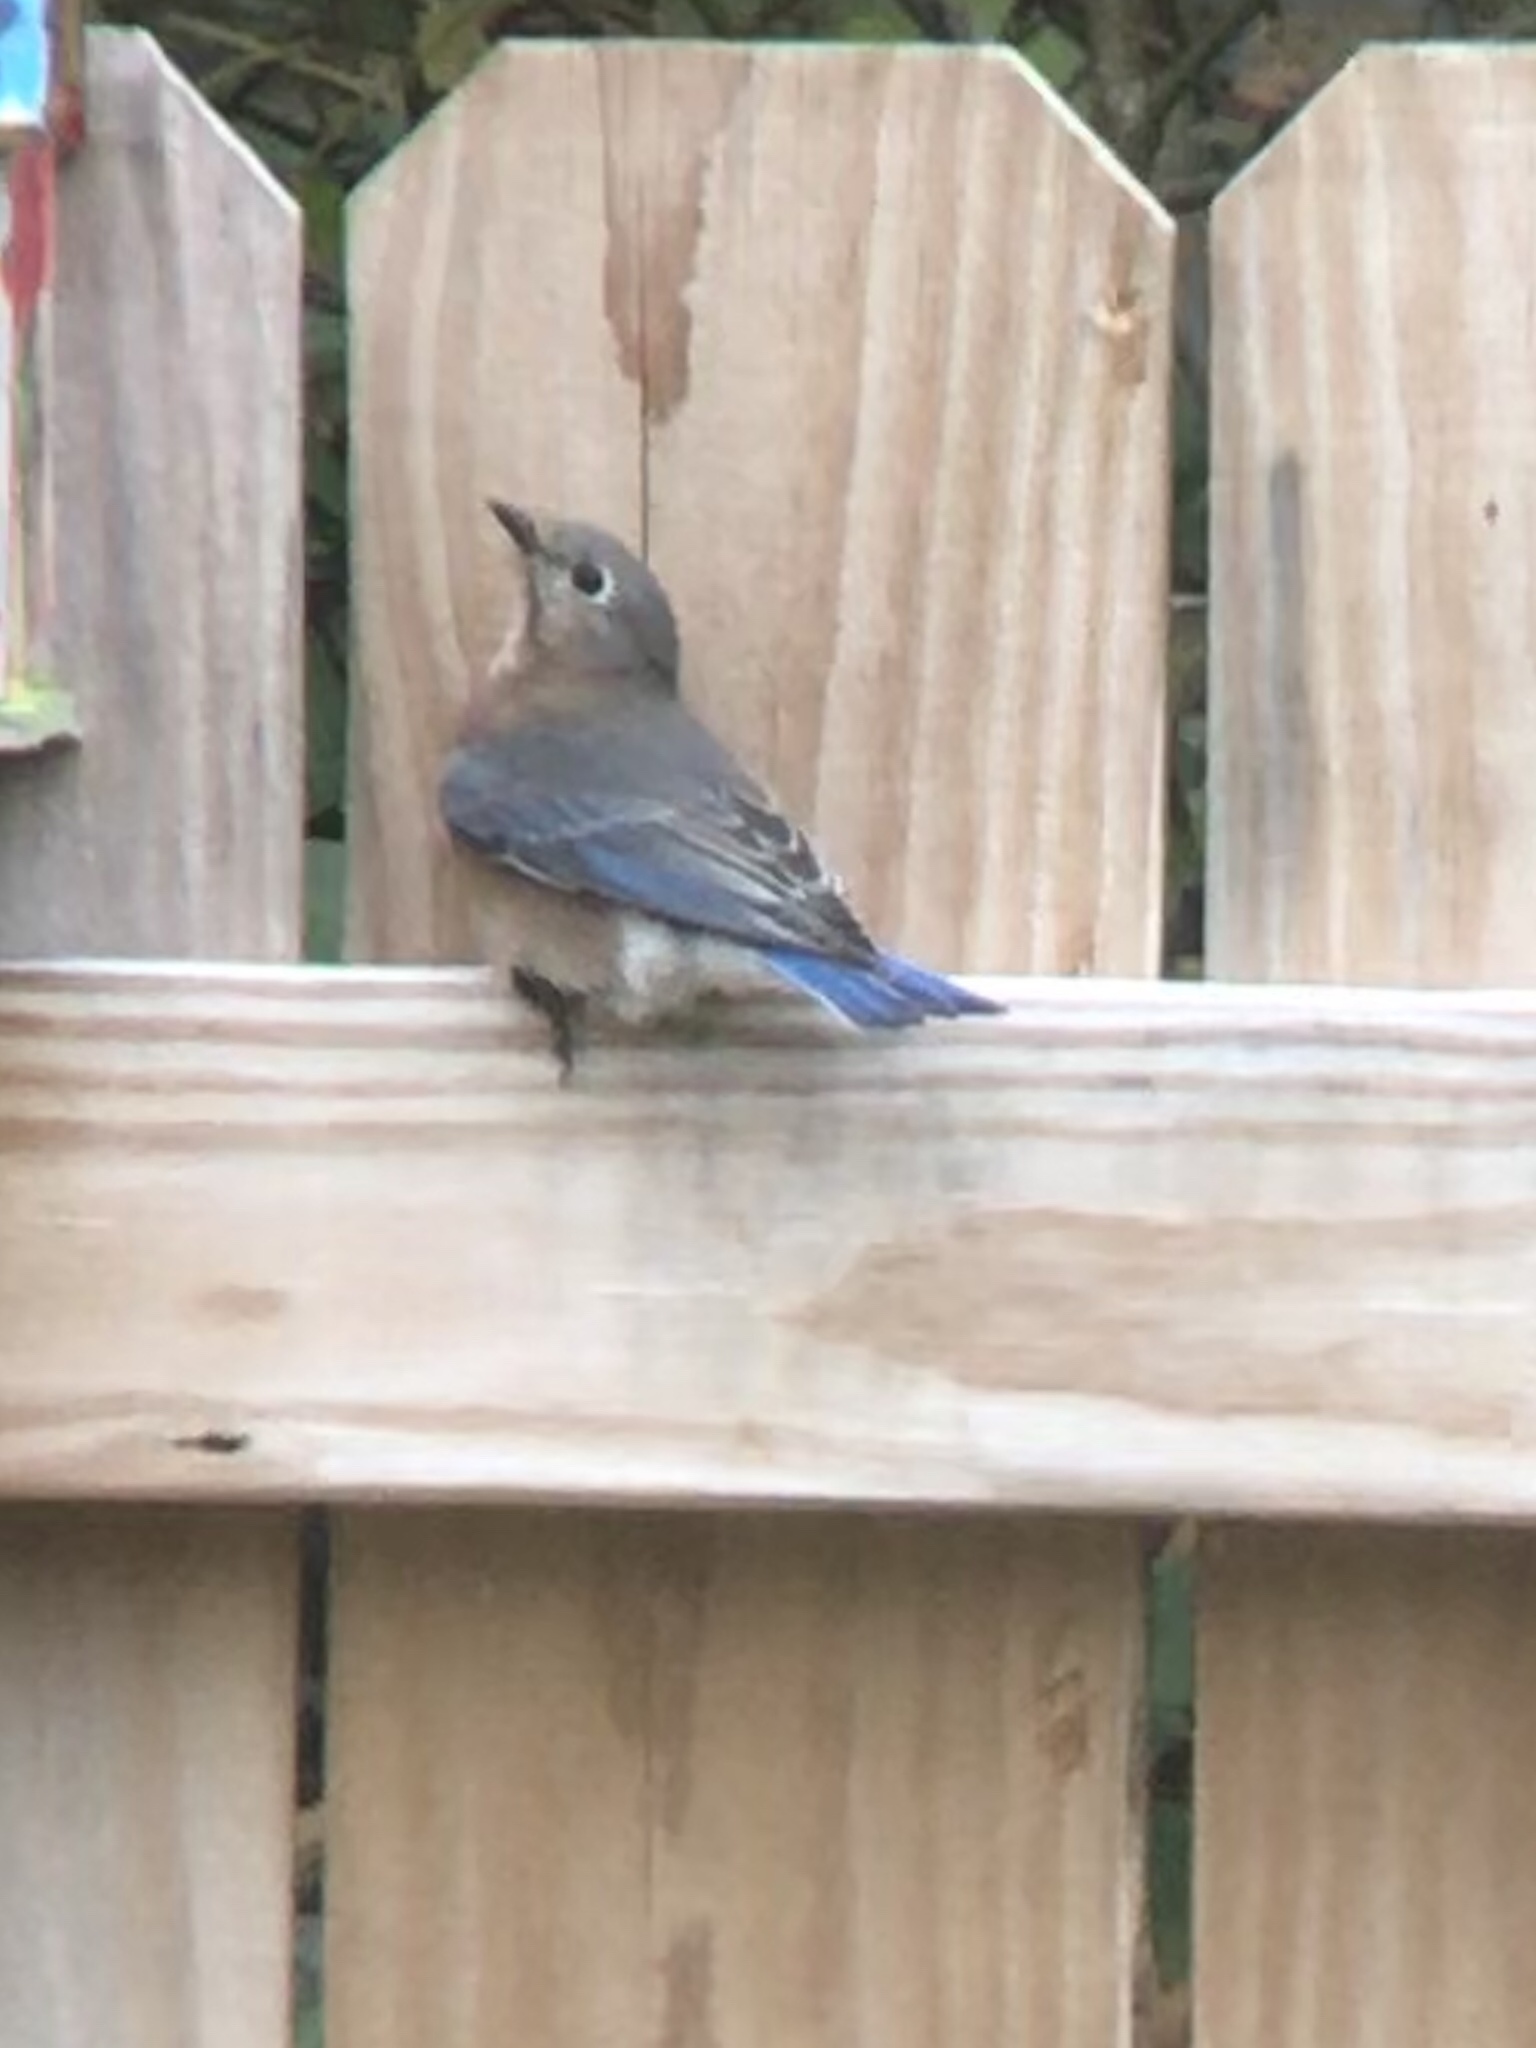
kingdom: Animalia
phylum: Chordata
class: Aves
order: Passeriformes
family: Turdidae
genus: Sialia
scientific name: Sialia sialis
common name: Eastern bluebird
